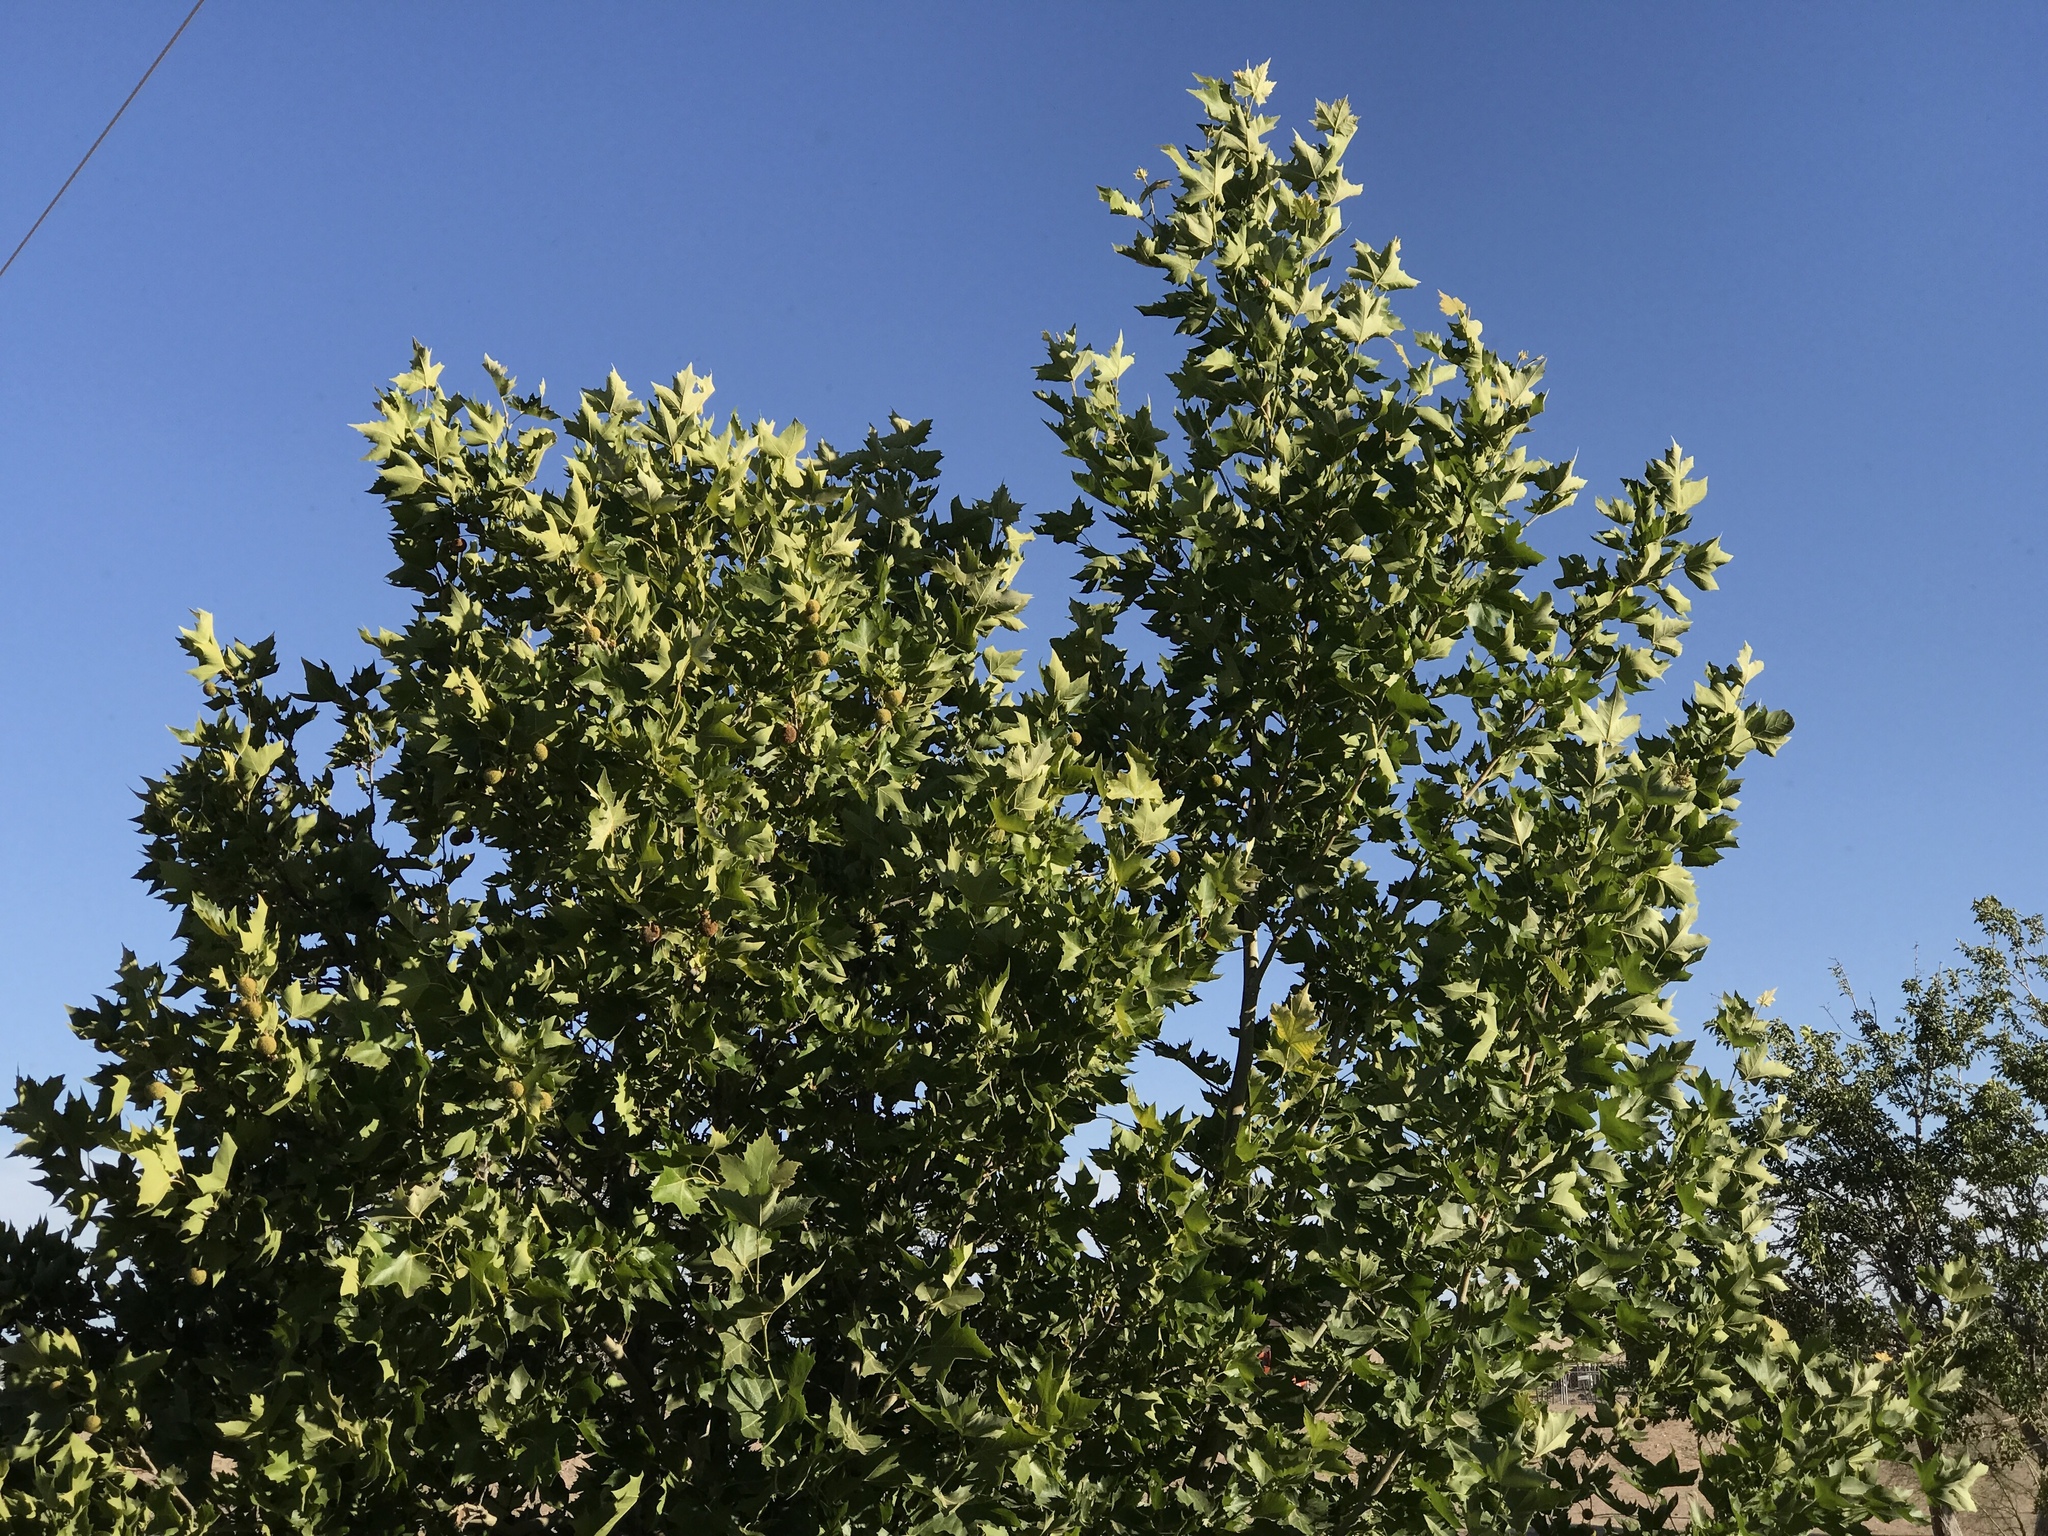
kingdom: Plantae
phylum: Tracheophyta
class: Magnoliopsida
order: Proteales
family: Platanaceae
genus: Platanus
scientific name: Platanus wrightii
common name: Arizona sycamore
